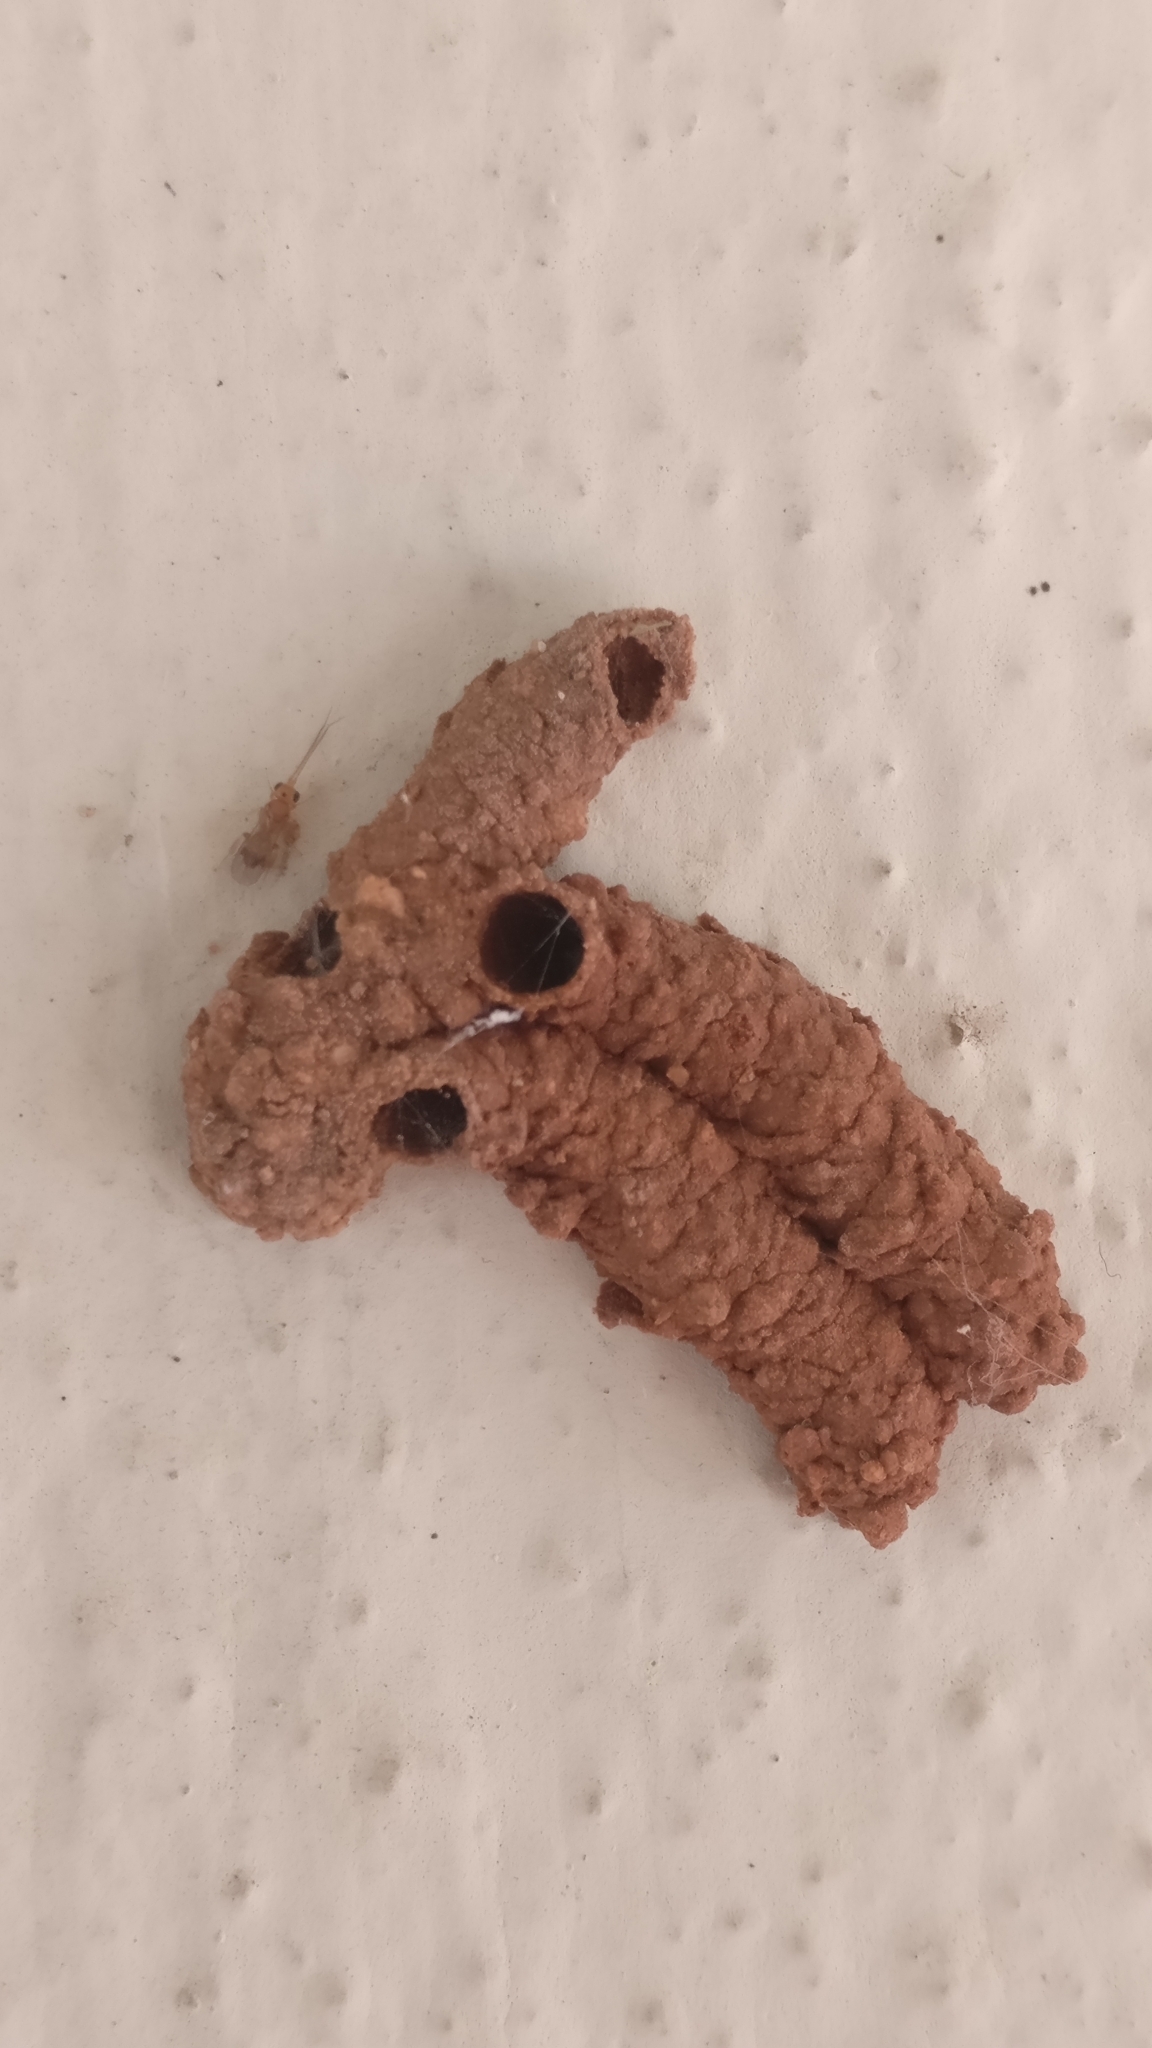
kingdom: Animalia
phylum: Arthropoda
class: Insecta
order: Hymenoptera
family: Eumenidae
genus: Paraleptomenes
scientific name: Paraleptomenes
